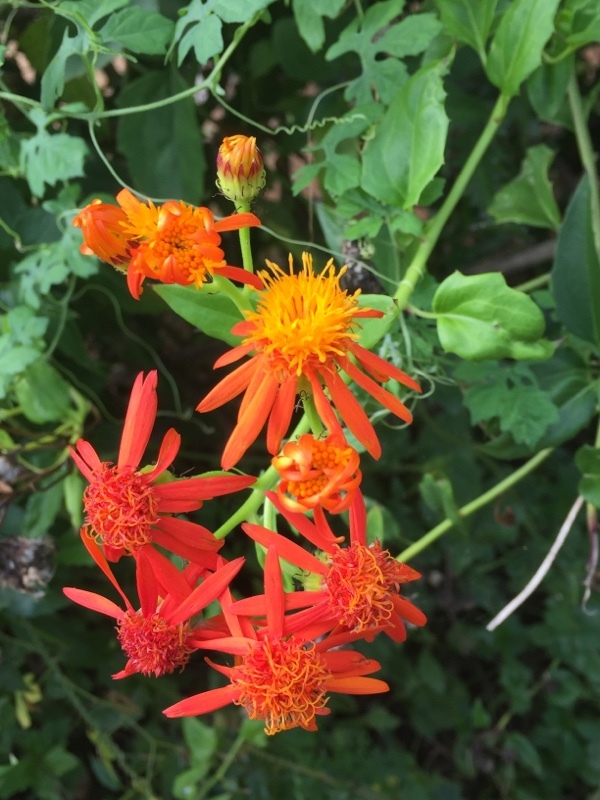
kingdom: Plantae
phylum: Tracheophyta
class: Magnoliopsida
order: Asterales
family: Asteraceae
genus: Pseudogynoxys
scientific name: Pseudogynoxys chenopodioides
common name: Mexican flamevine
